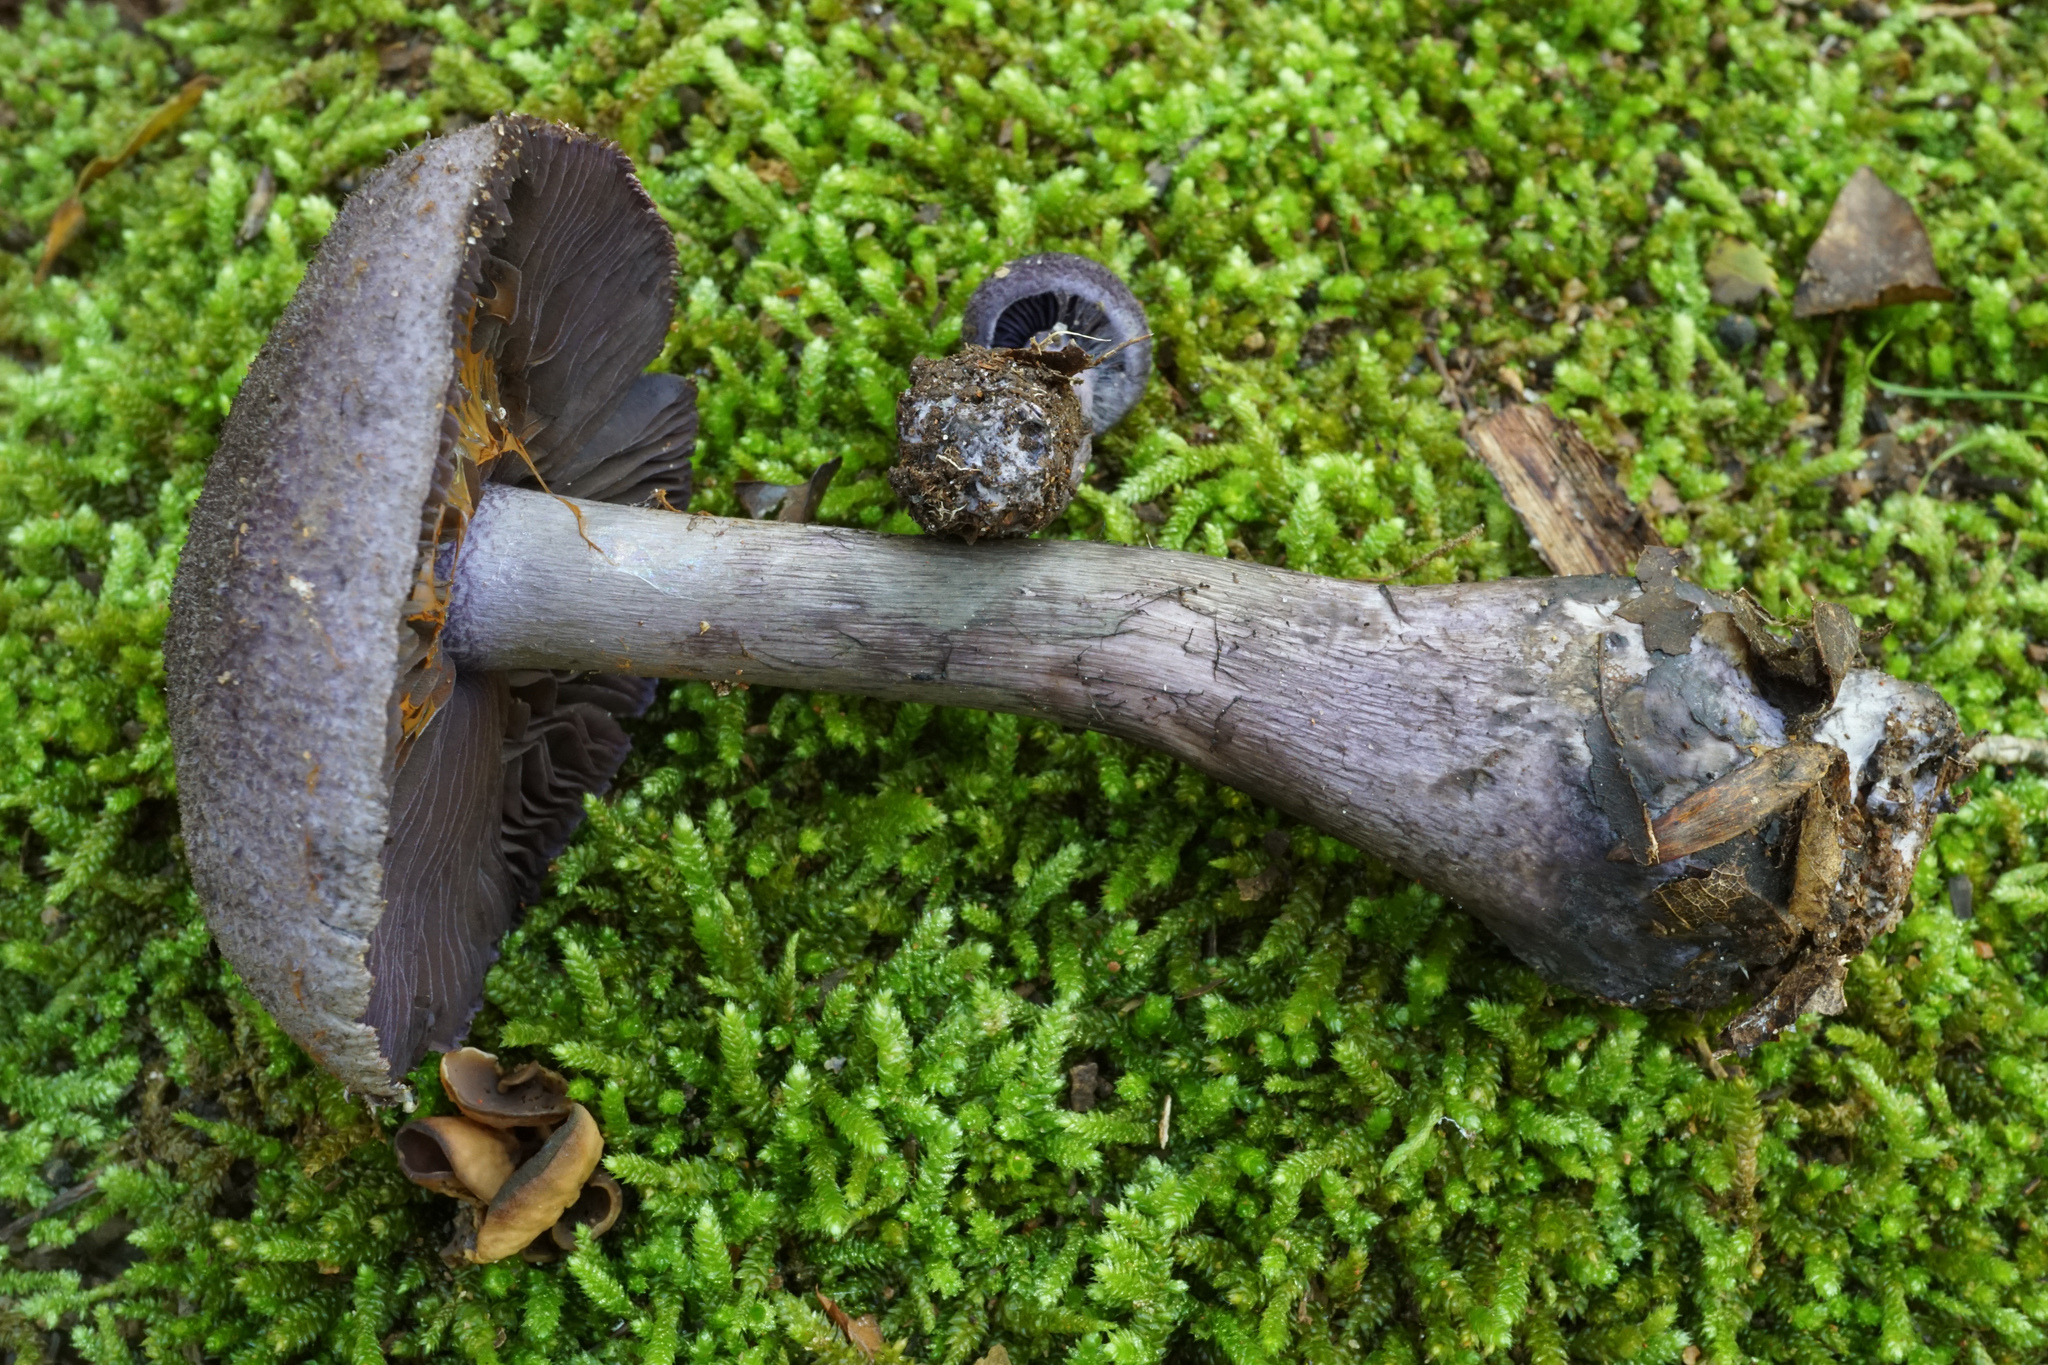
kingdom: Fungi
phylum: Basidiomycota
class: Agaricomycetes
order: Agaricales
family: Cortinariaceae
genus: Cortinarius
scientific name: Cortinarius violaceus
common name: Violet webcap
